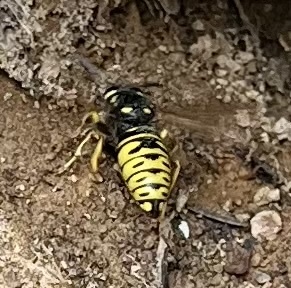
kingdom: Animalia
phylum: Arthropoda
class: Insecta
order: Hymenoptera
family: Vespidae
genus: Vespula
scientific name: Vespula infernalis
